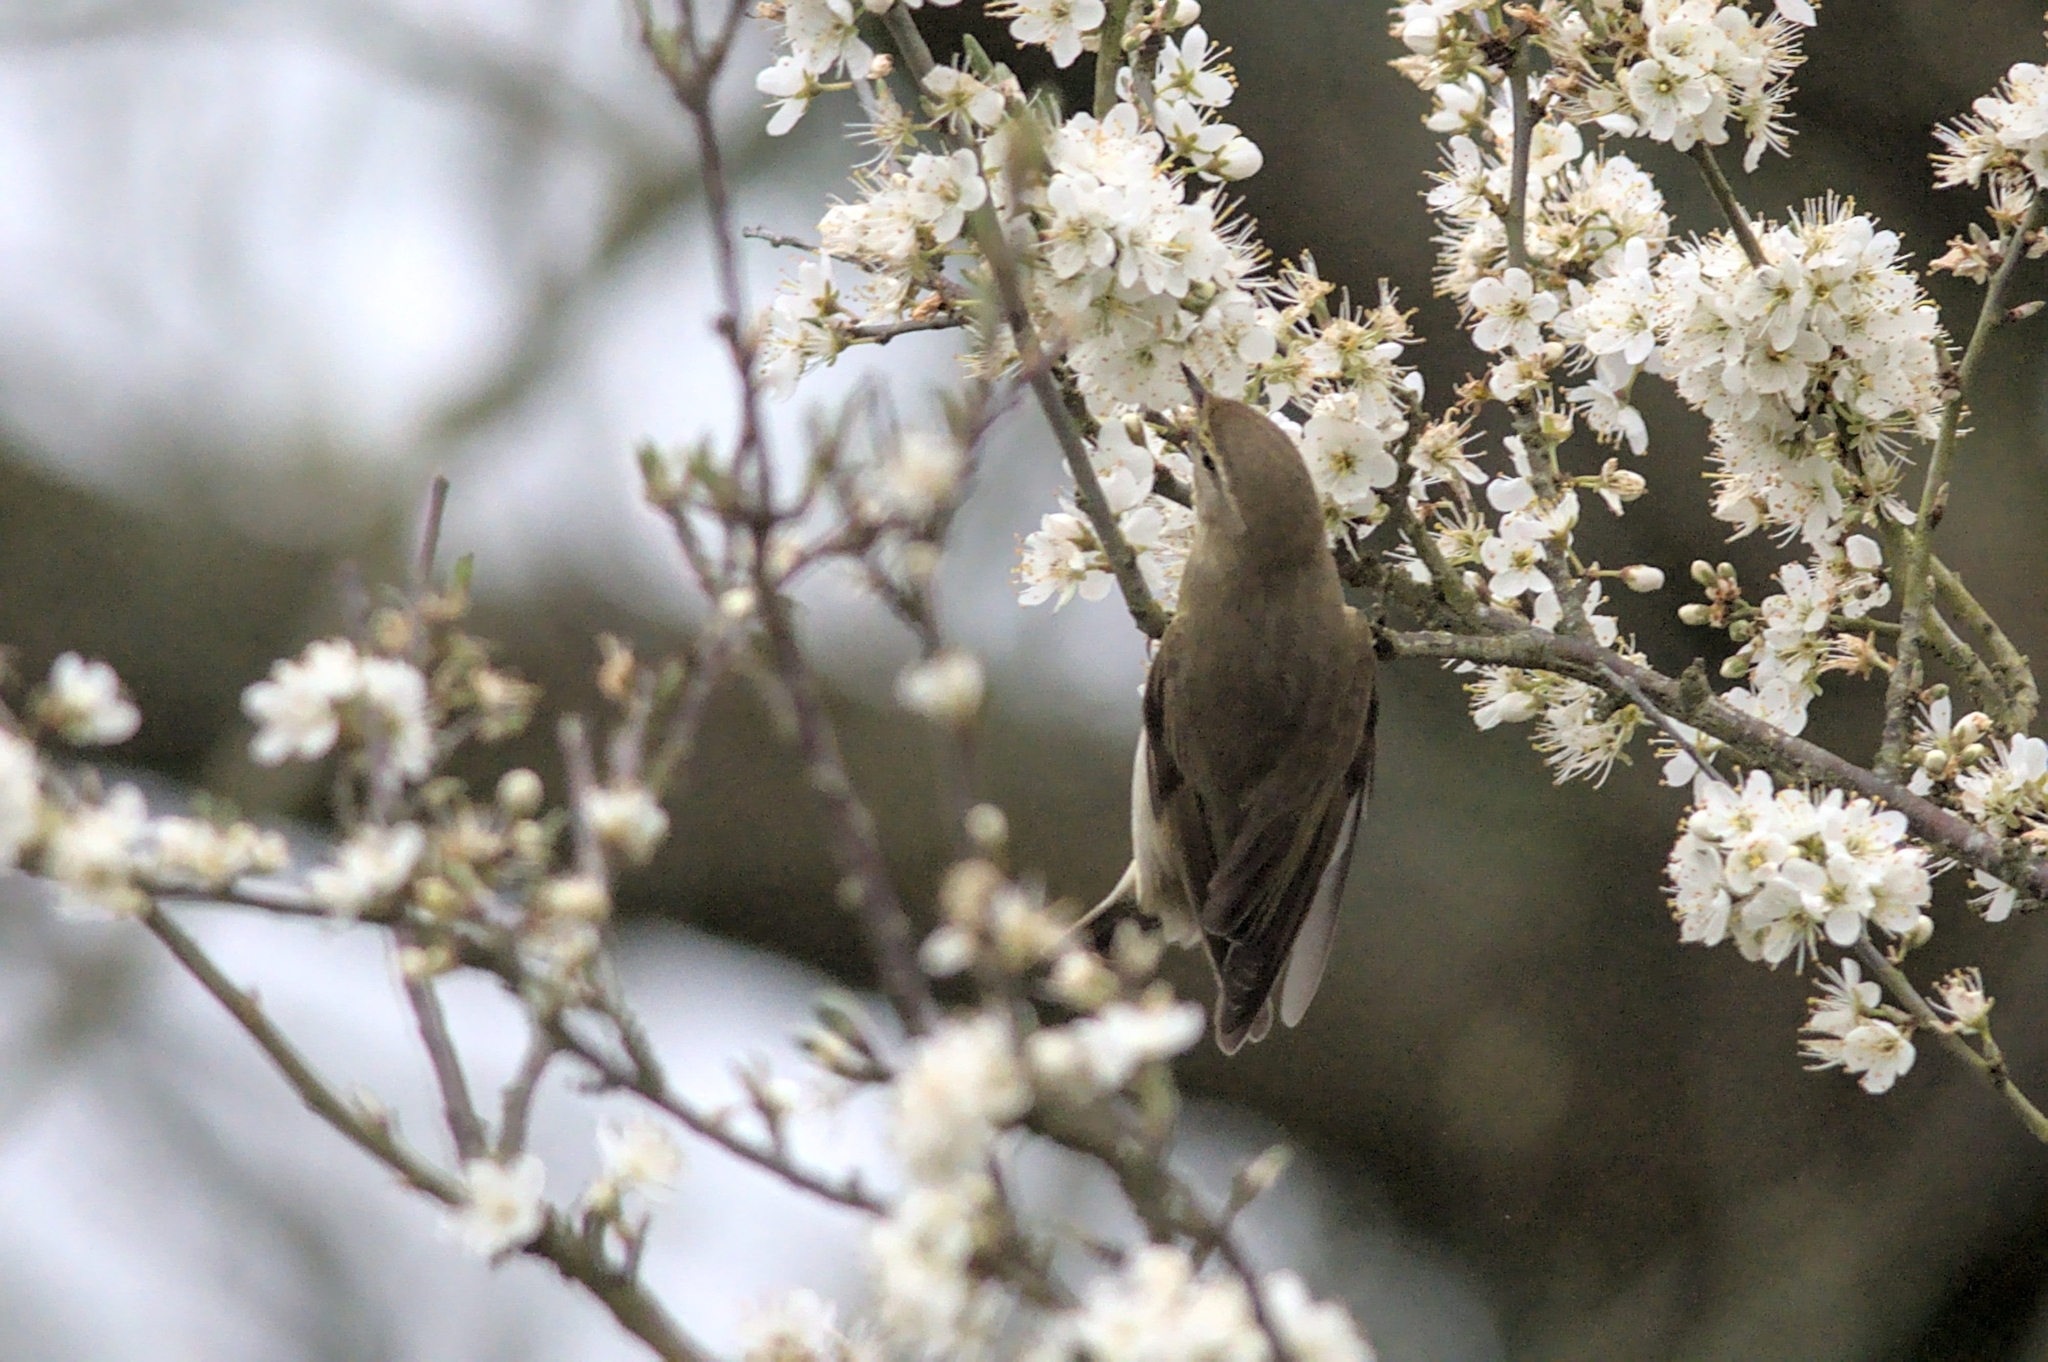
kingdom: Animalia
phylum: Chordata
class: Aves
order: Passeriformes
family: Phylloscopidae
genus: Phylloscopus
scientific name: Phylloscopus collybita
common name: Common chiffchaff
